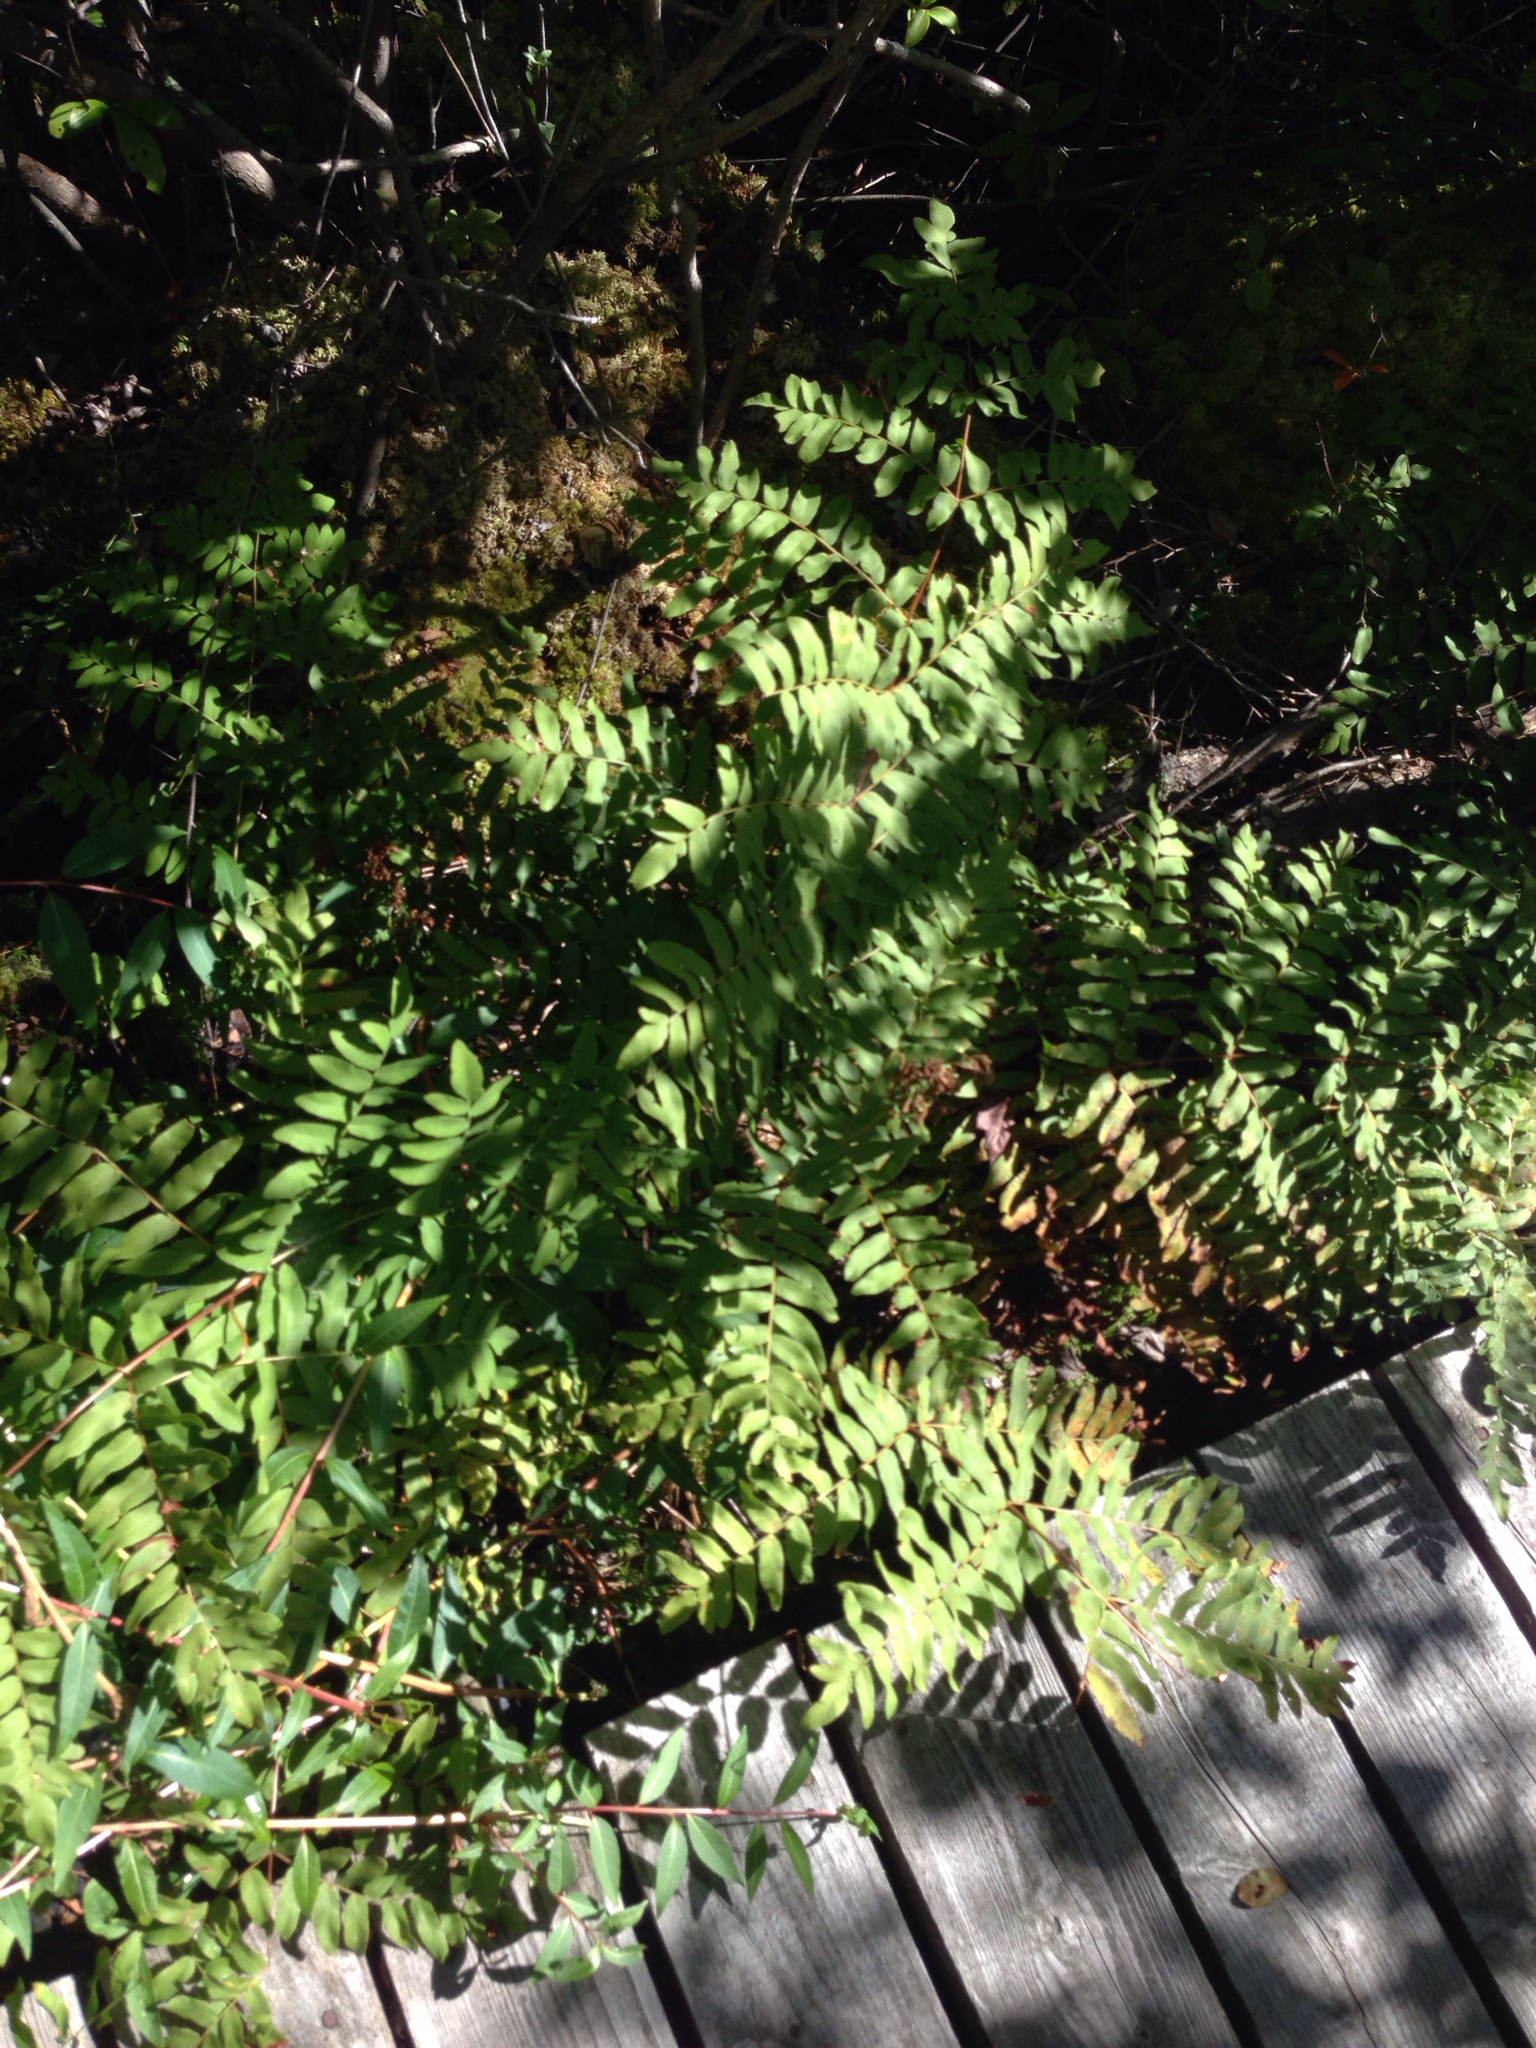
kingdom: Plantae
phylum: Tracheophyta
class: Polypodiopsida
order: Osmundales
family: Osmundaceae
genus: Osmunda
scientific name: Osmunda spectabilis
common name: American royal fern
